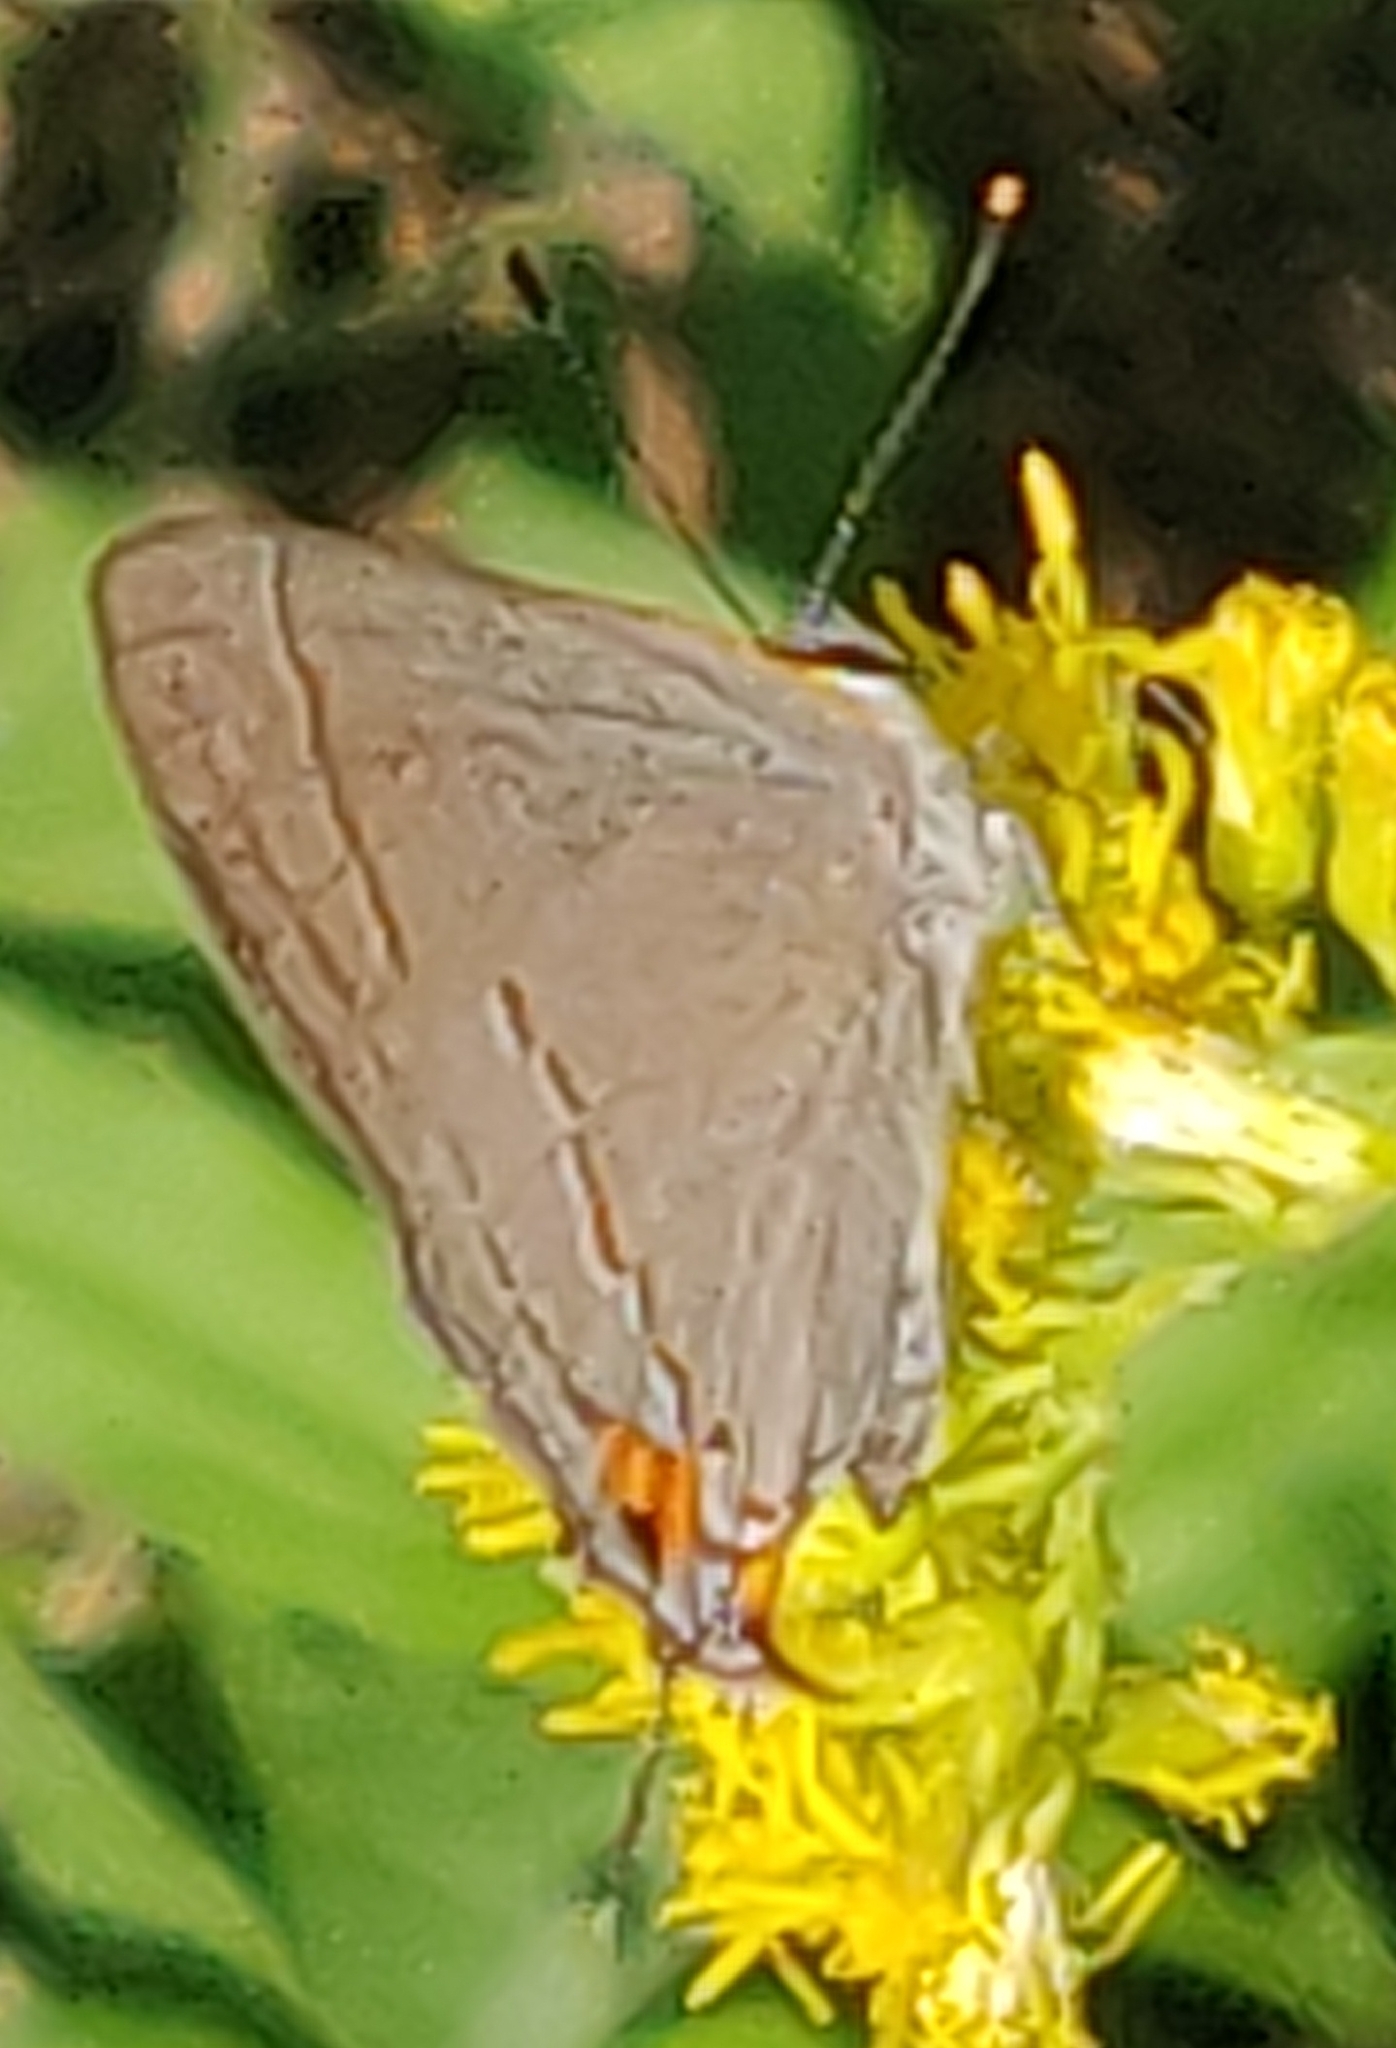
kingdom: Animalia
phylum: Arthropoda
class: Insecta
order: Lepidoptera
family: Lycaenidae
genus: Strymon
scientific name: Strymon melinus
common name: Gray hairstreak
